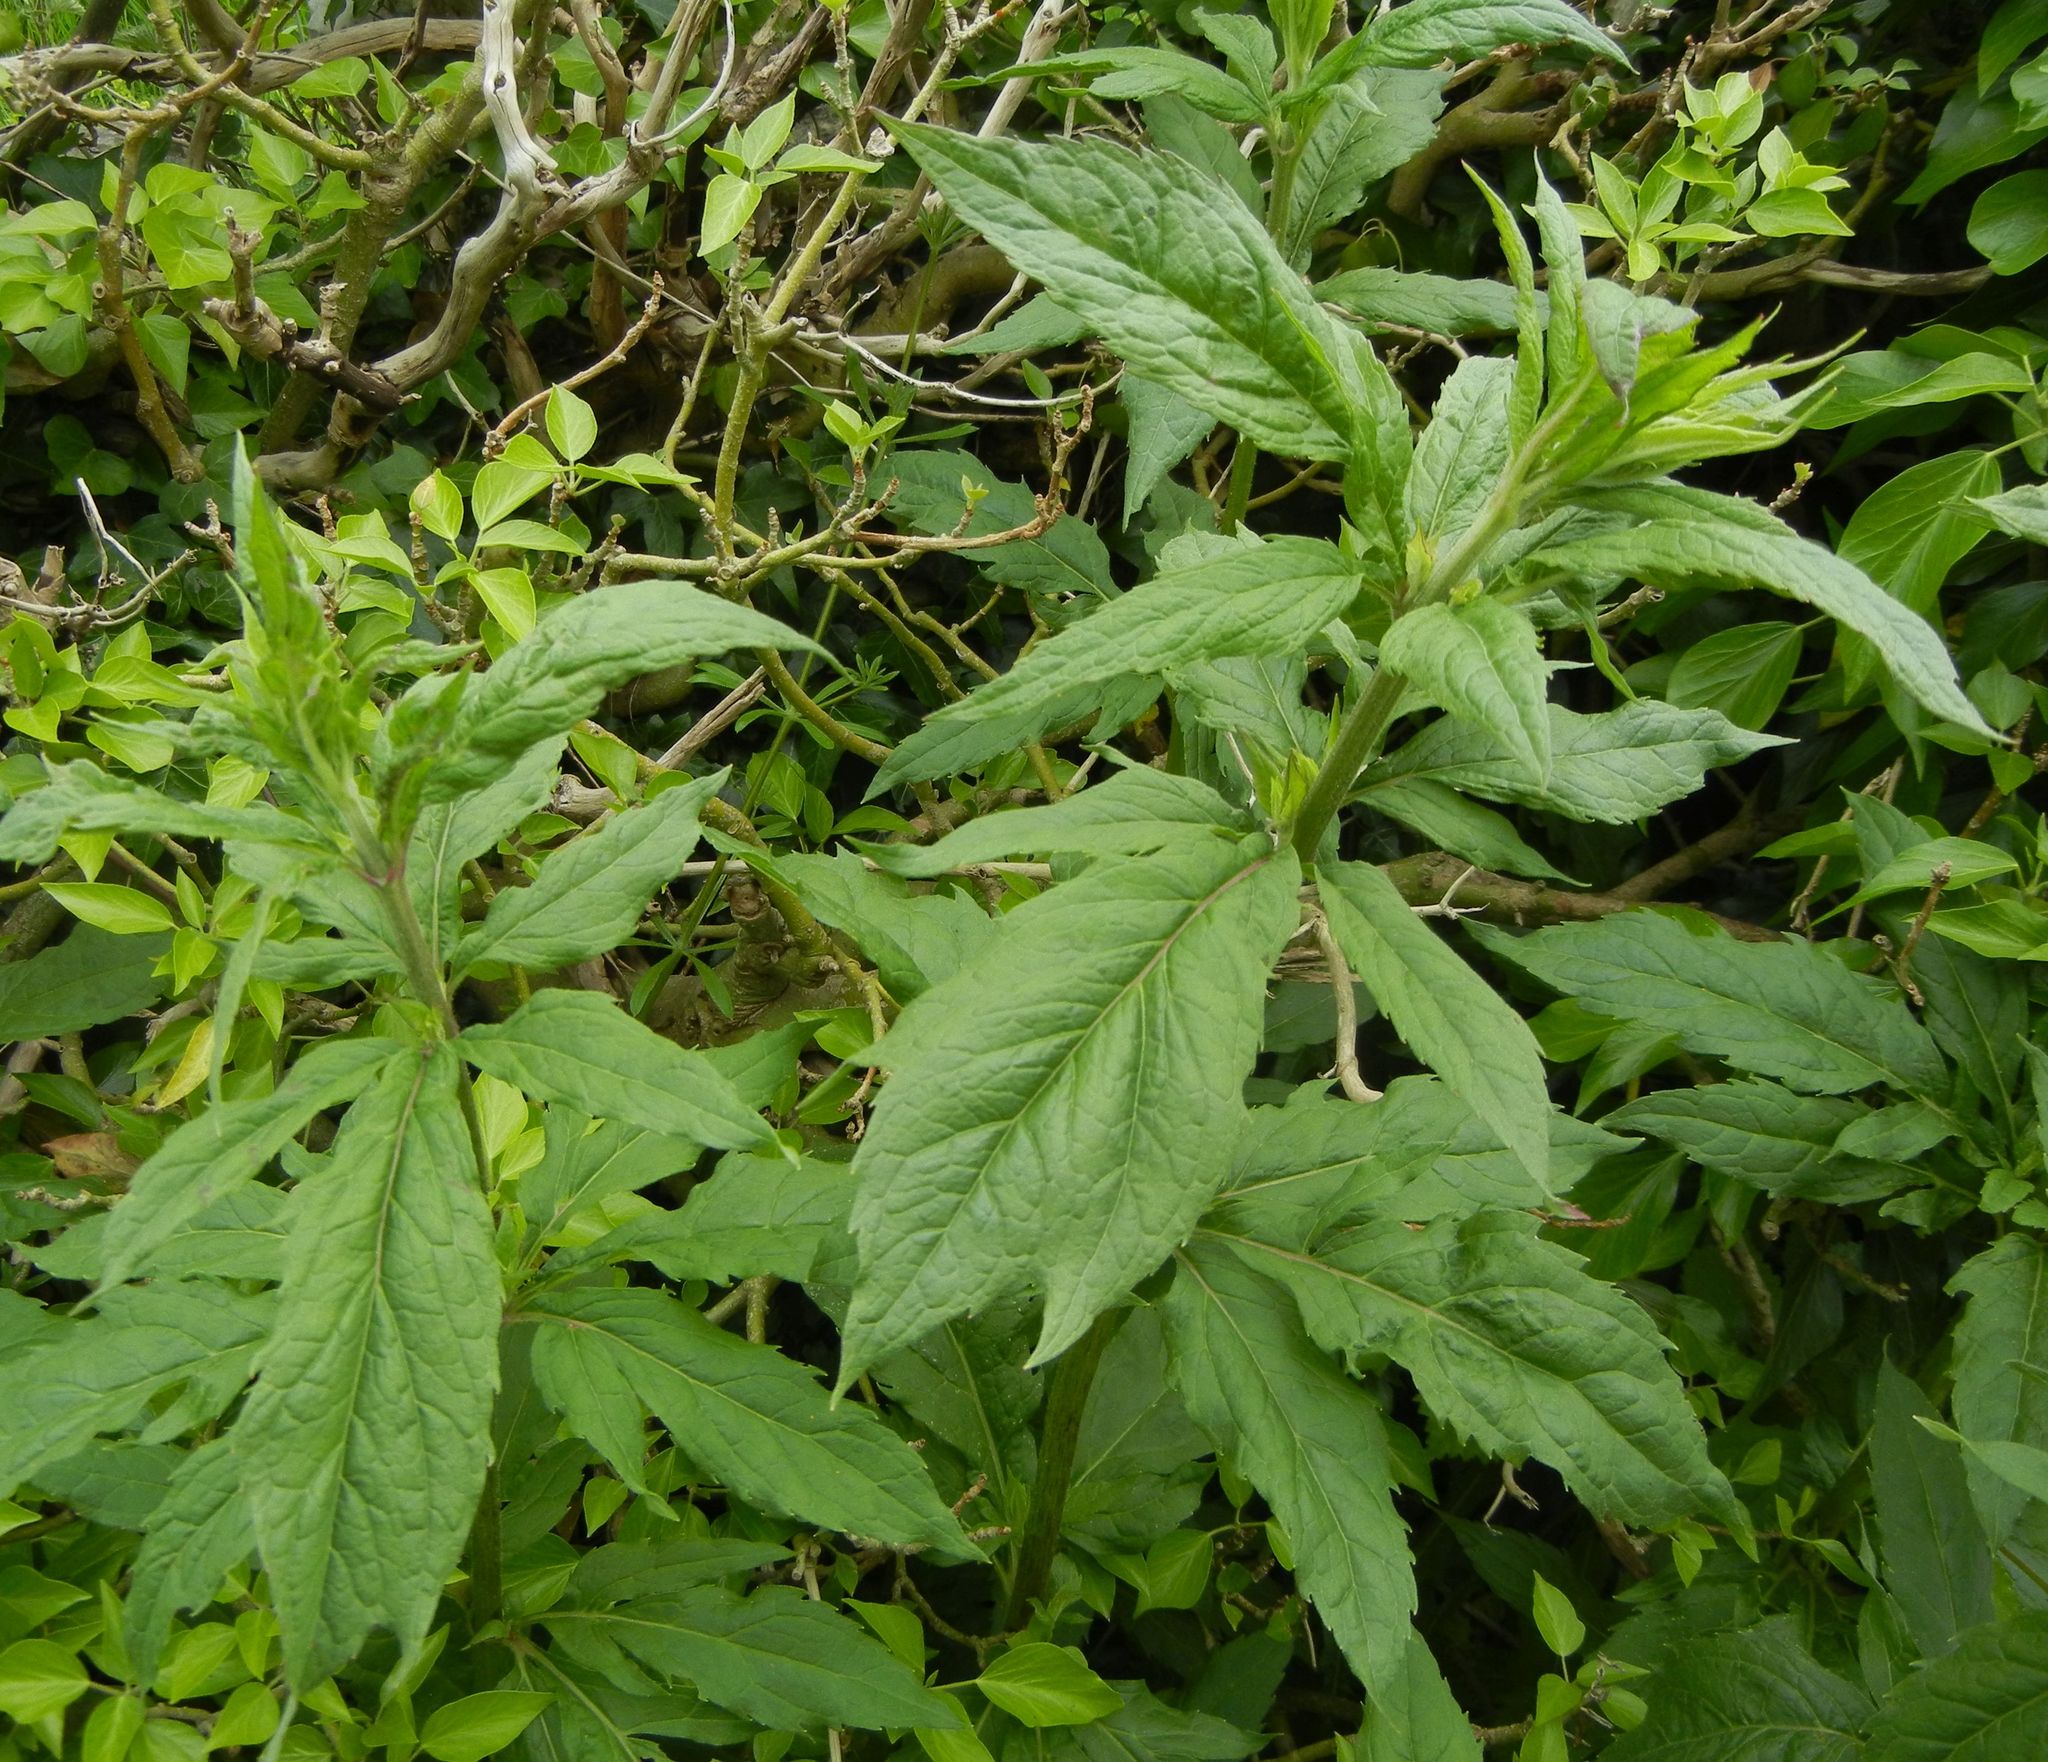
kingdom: Plantae
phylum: Tracheophyta
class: Magnoliopsida
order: Asterales
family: Asteraceae
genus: Eupatorium
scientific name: Eupatorium cannabinum
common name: Hemp-agrimony
